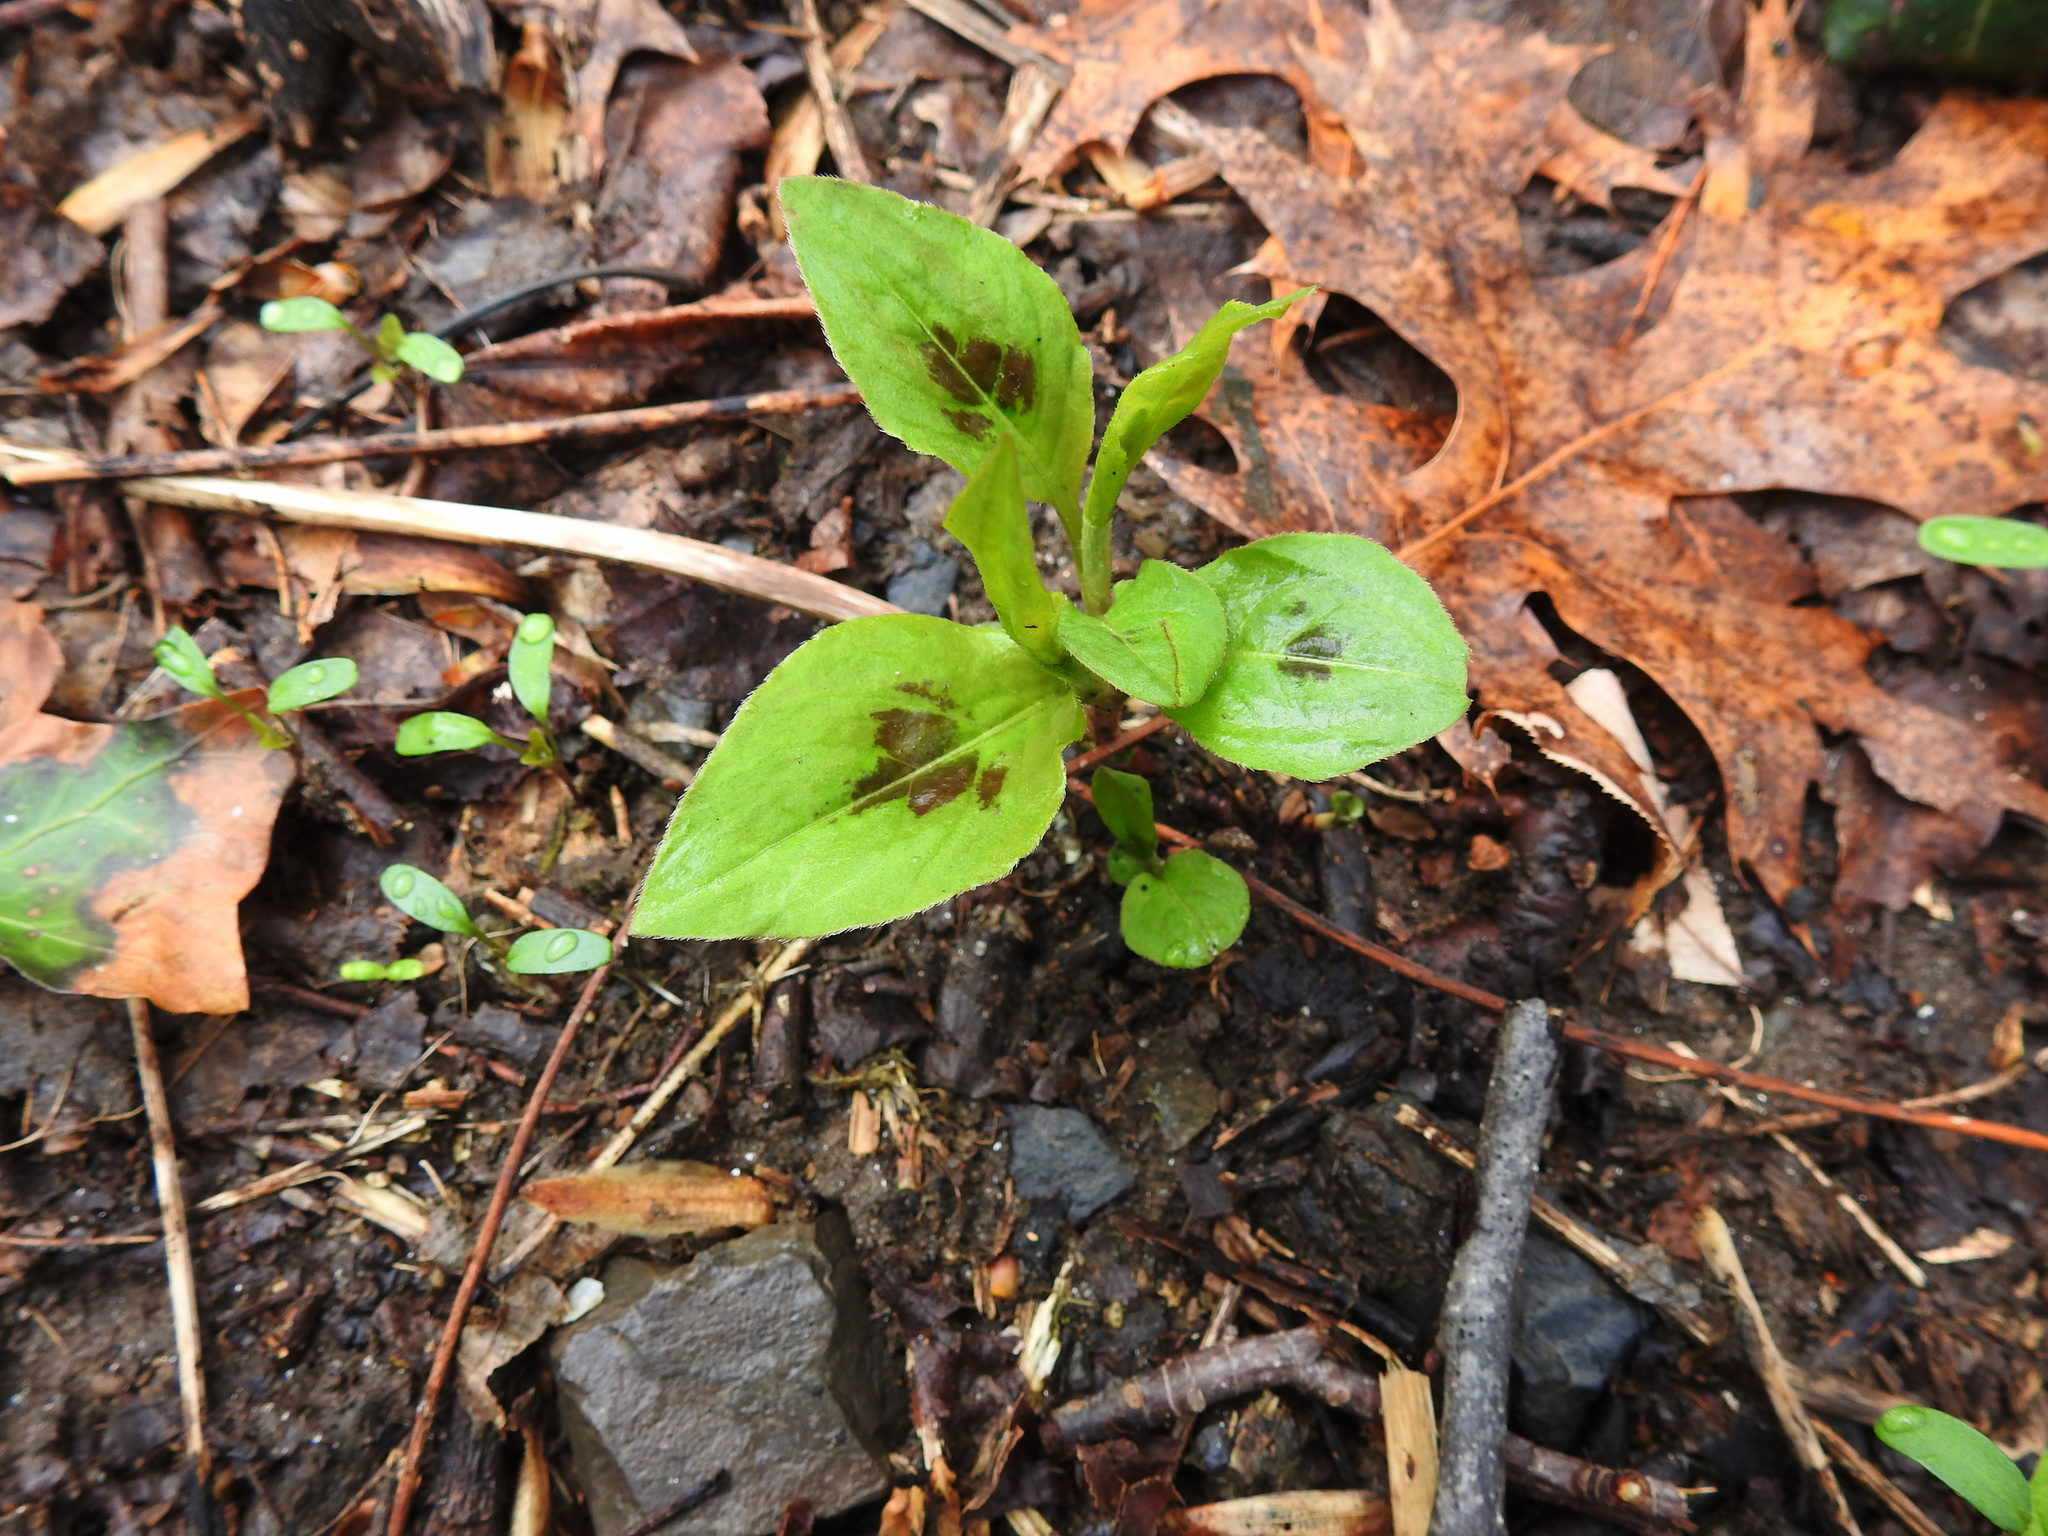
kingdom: Plantae
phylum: Tracheophyta
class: Magnoliopsida
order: Caryophyllales
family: Polygonaceae
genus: Persicaria
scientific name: Persicaria virginiana
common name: Jumpseed
